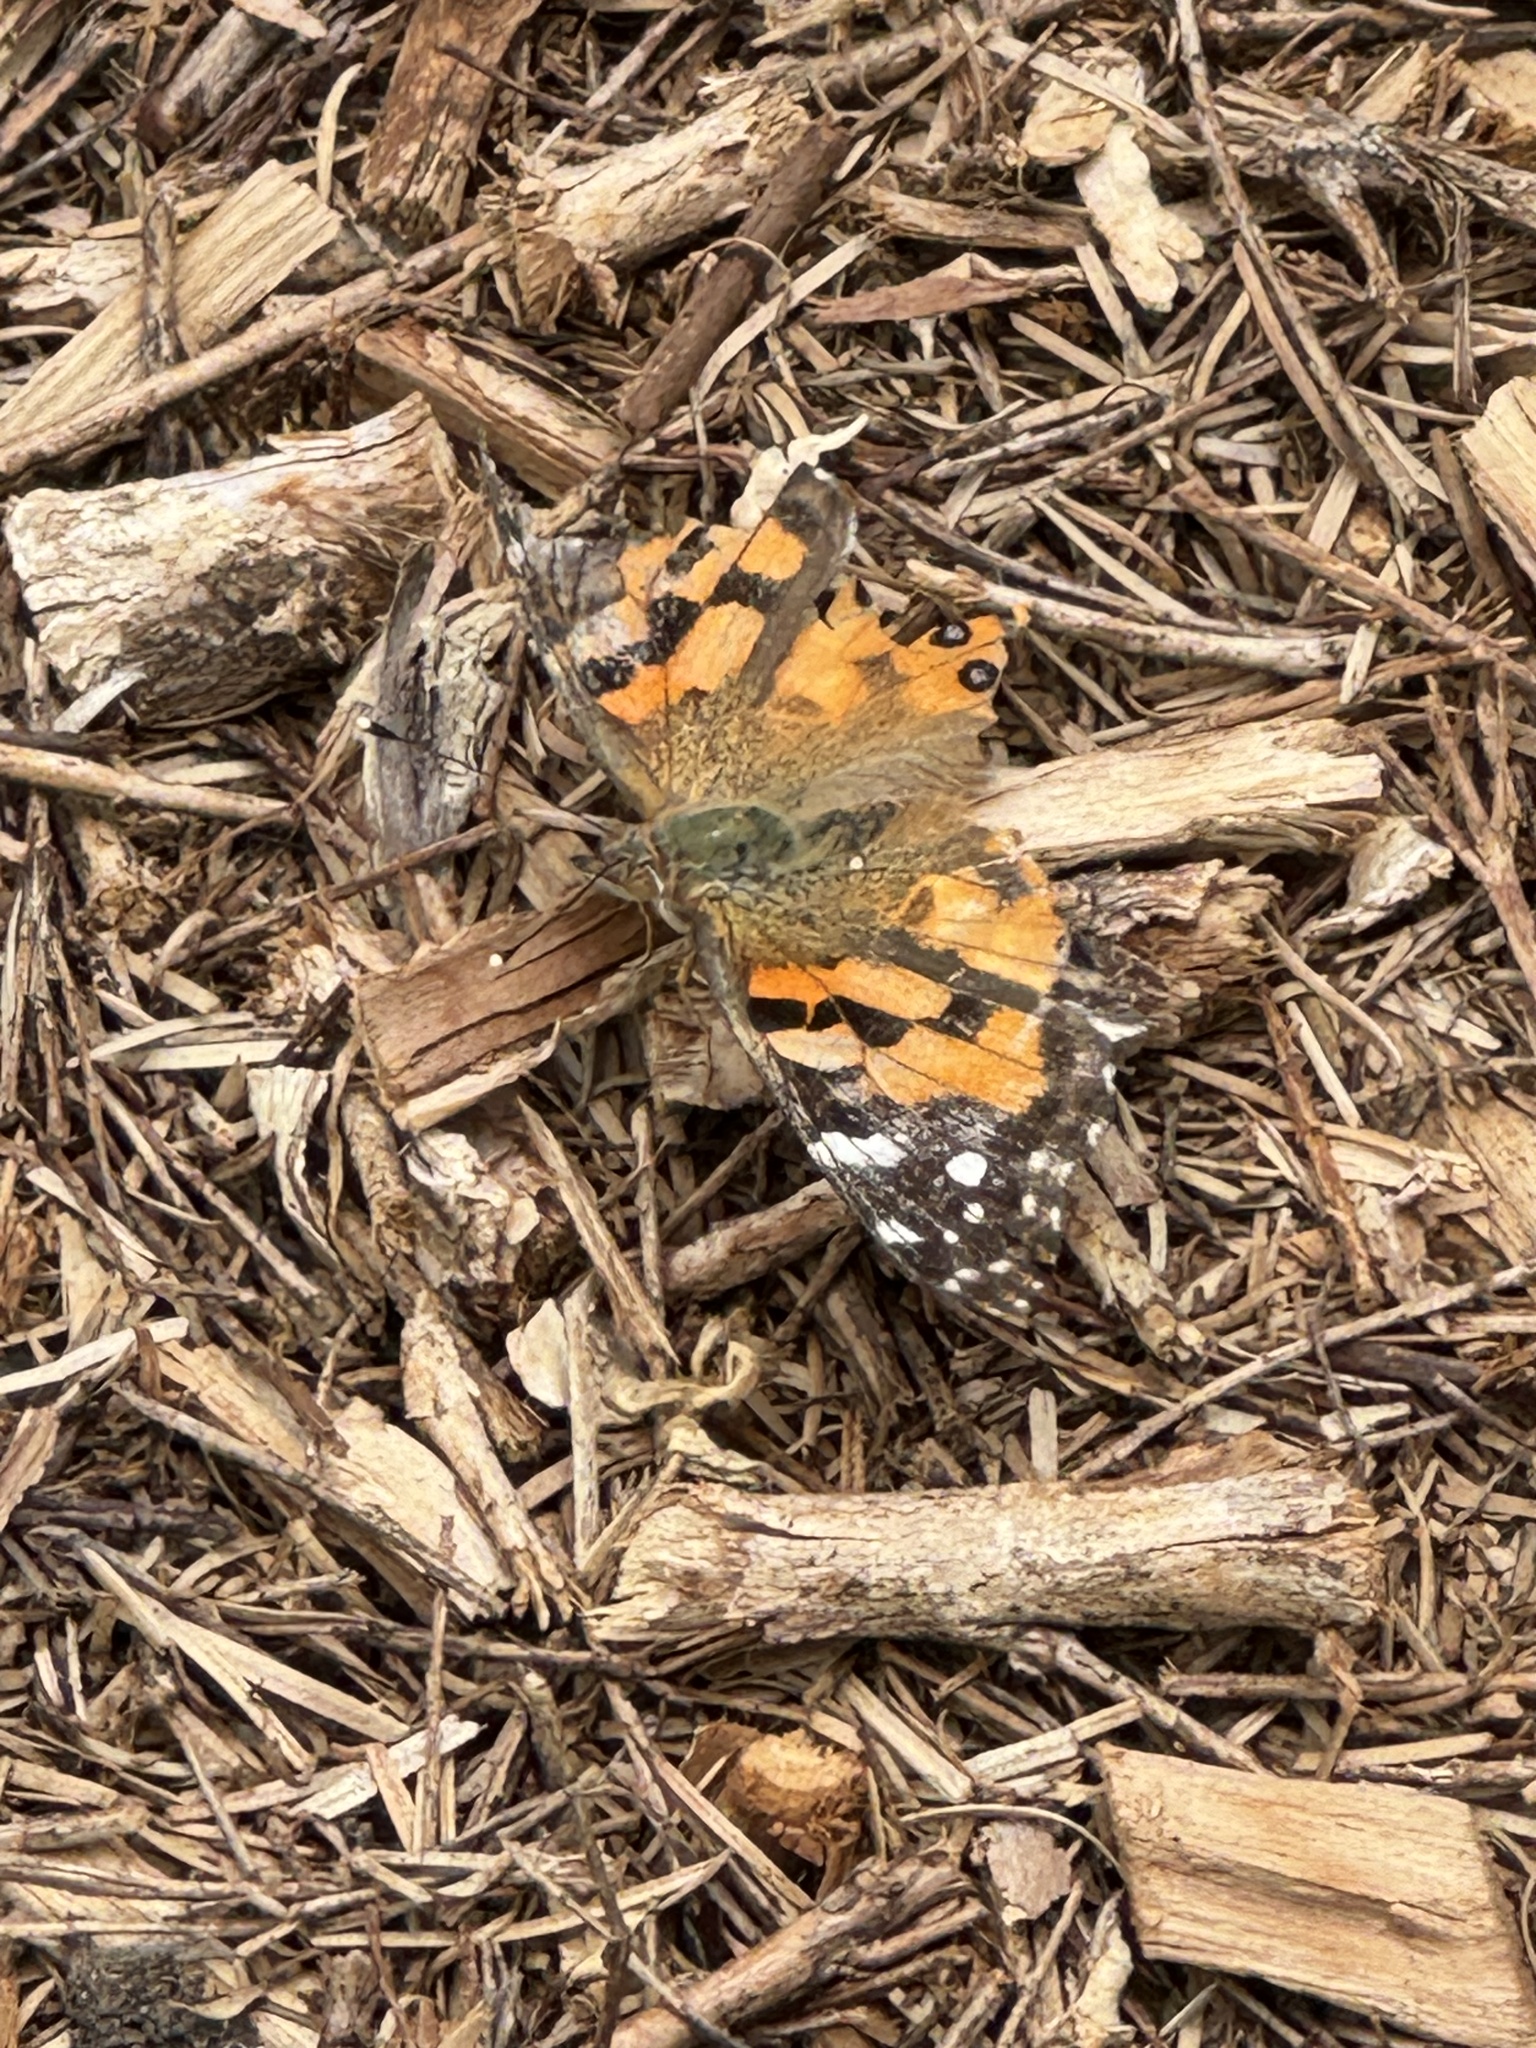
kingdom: Animalia
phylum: Arthropoda
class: Insecta
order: Lepidoptera
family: Nymphalidae
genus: Vanessa
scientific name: Vanessa kershawi
